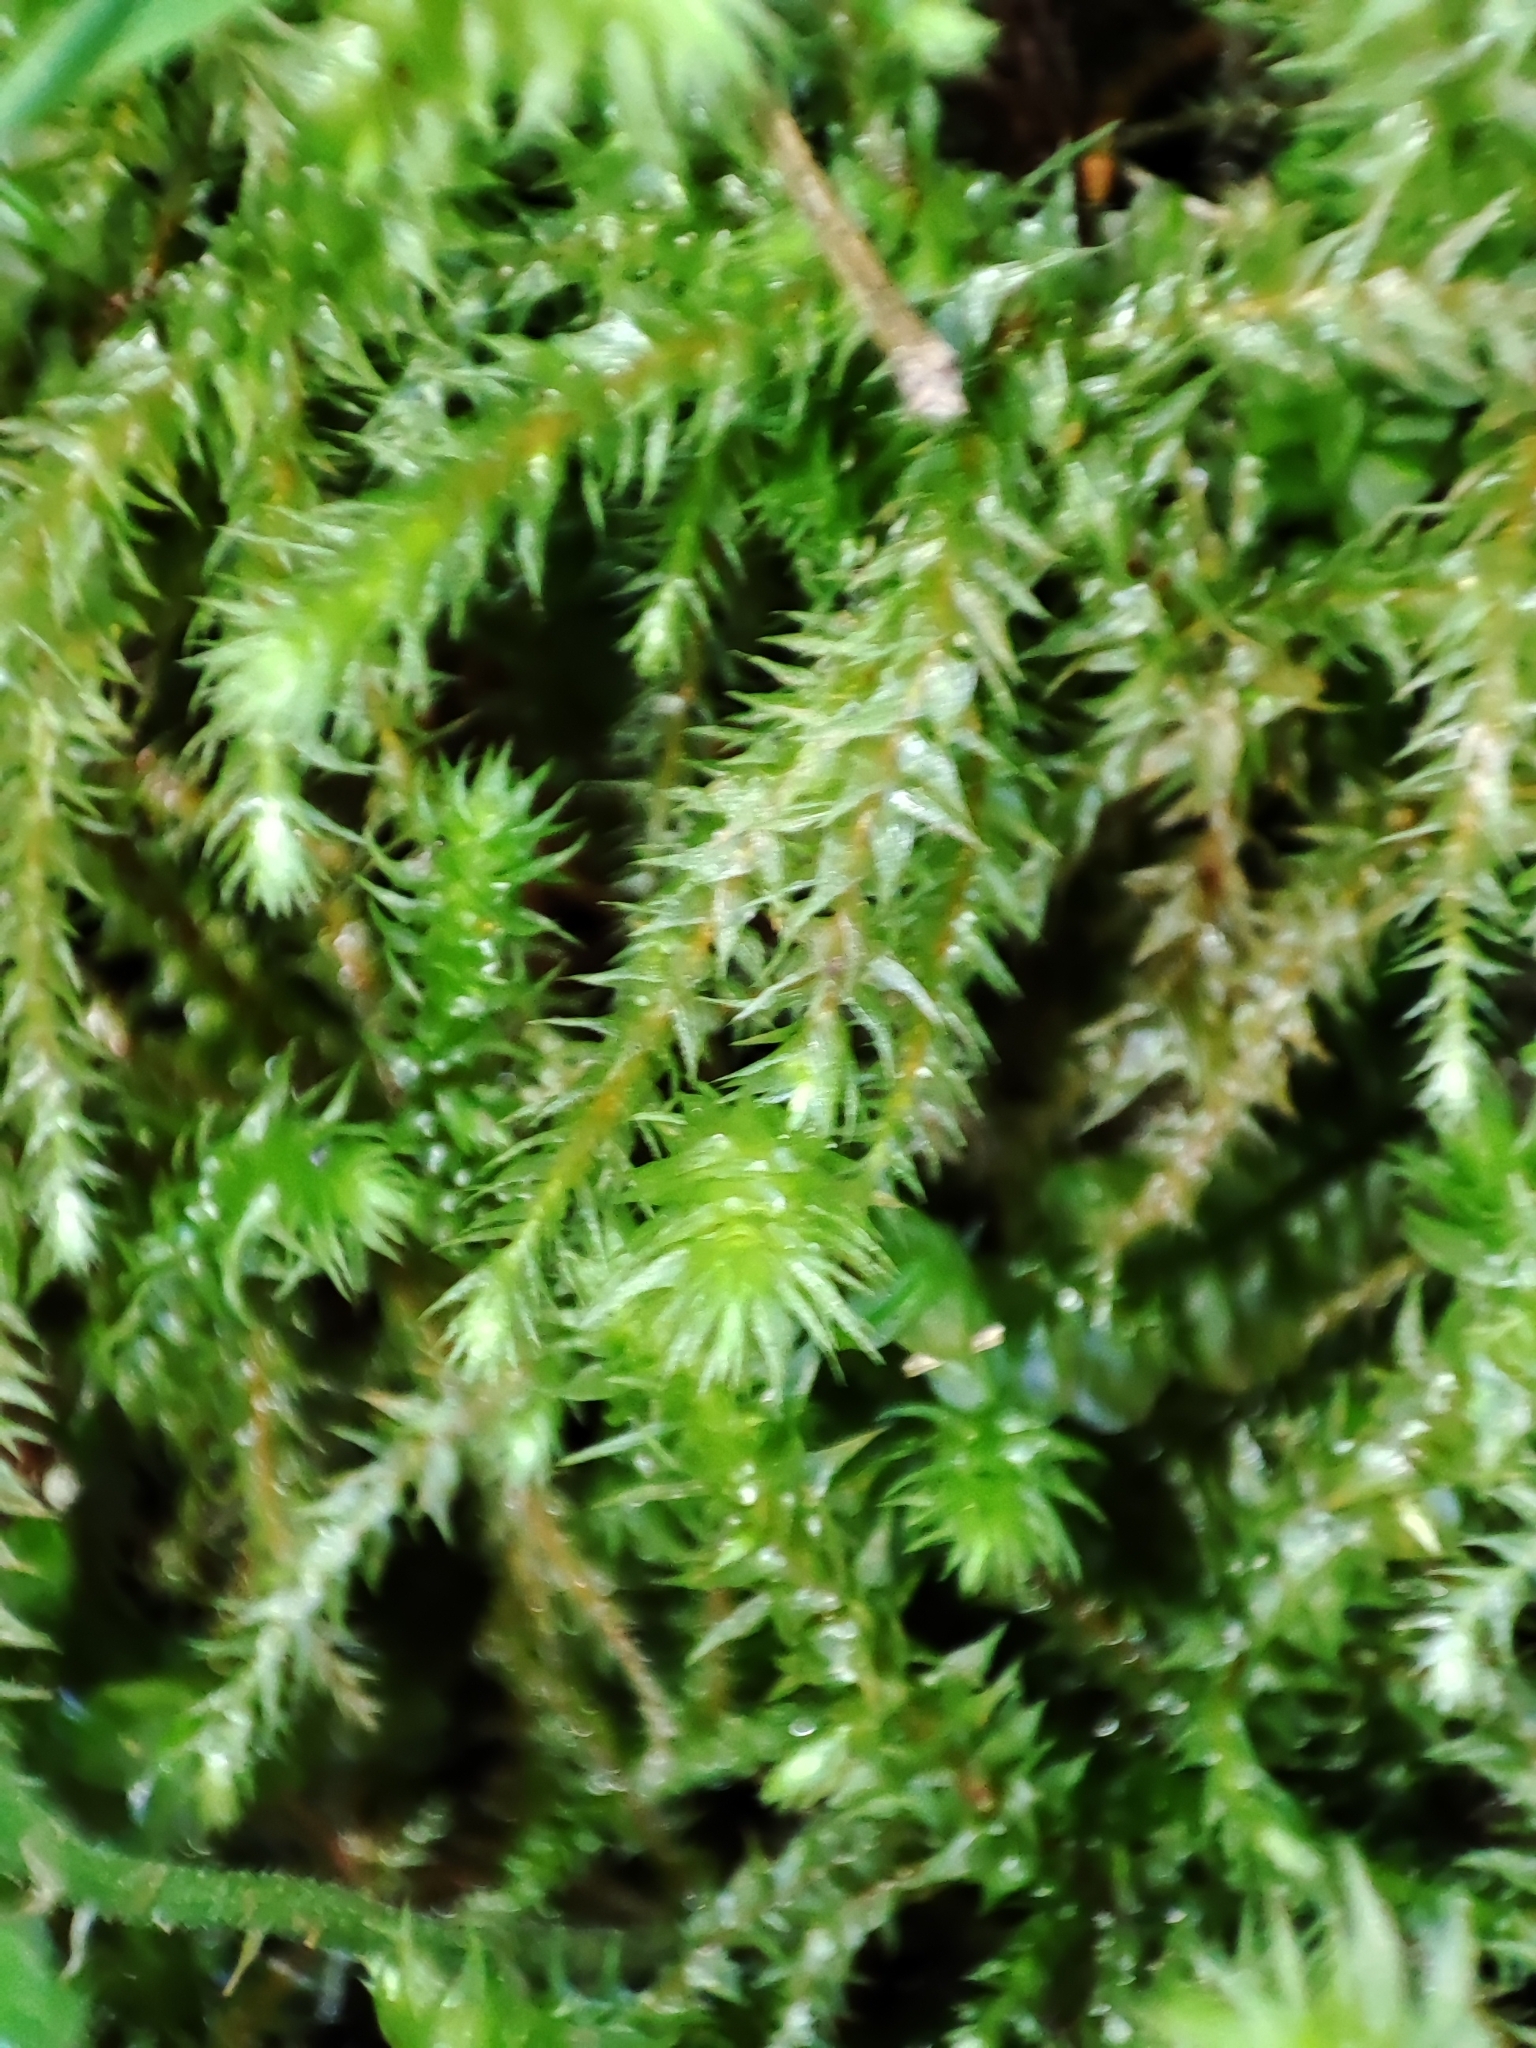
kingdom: Plantae
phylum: Bryophyta
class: Bryopsida
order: Hypnales
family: Hylocomiaceae
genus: Hylocomiadelphus
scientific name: Hylocomiadelphus triquetrus
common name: Rough goose neck moss
